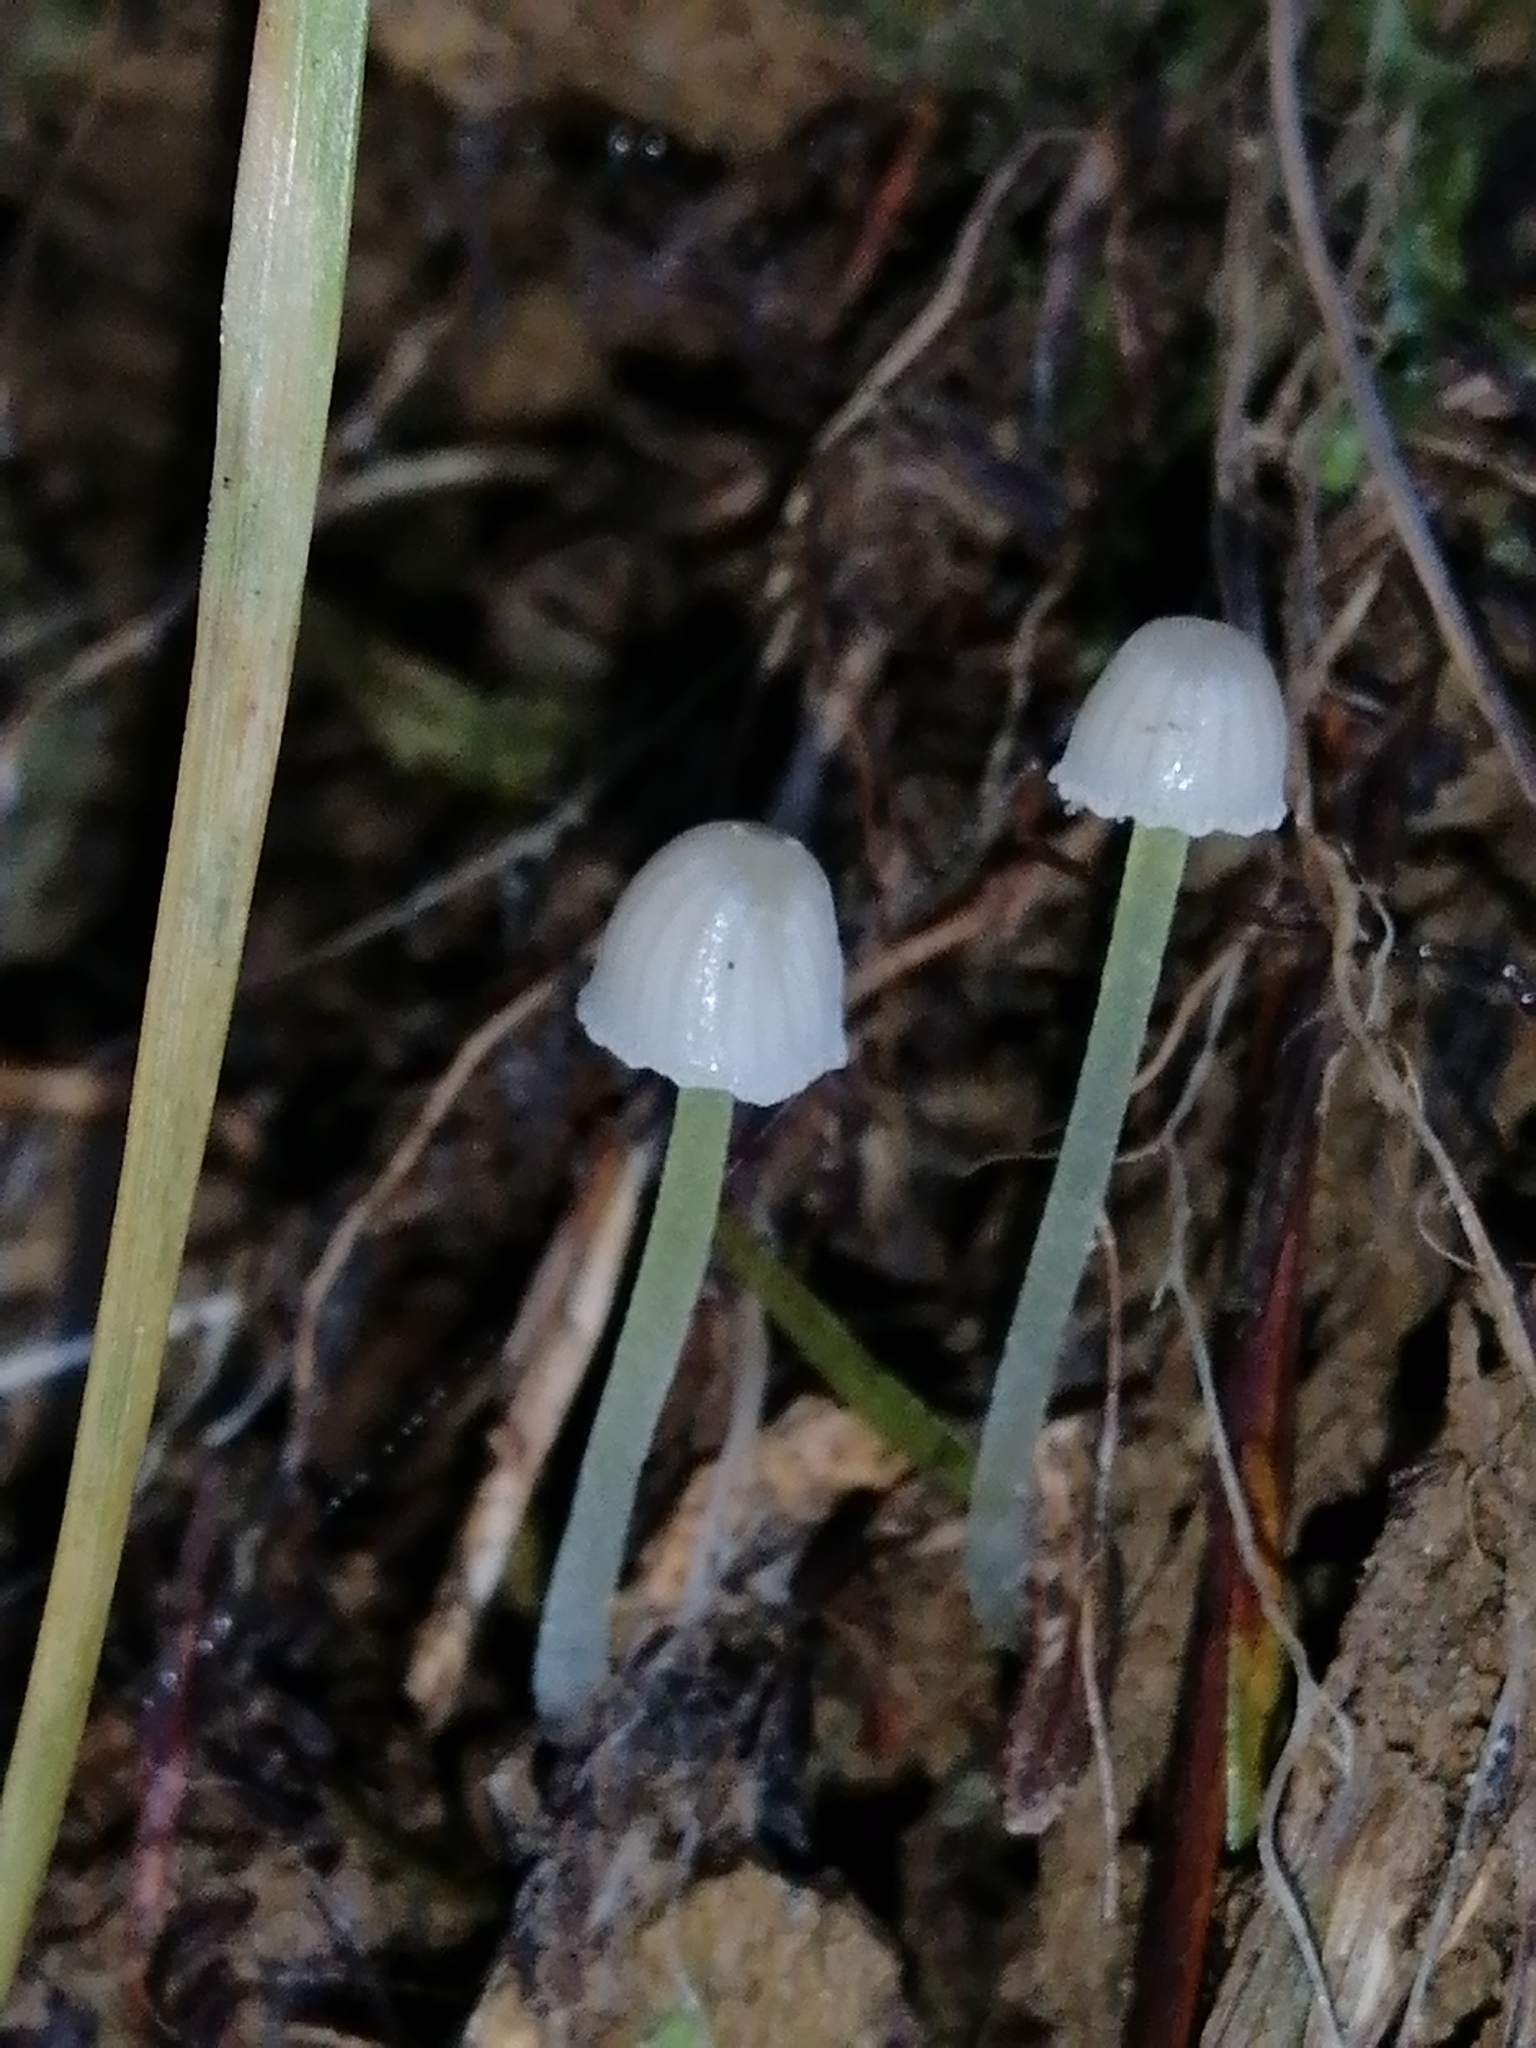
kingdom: Fungi
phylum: Basidiomycota
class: Agaricomycetes
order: Agaricales
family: Mycenaceae
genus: Mycena
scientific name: Mycena subviscosa
